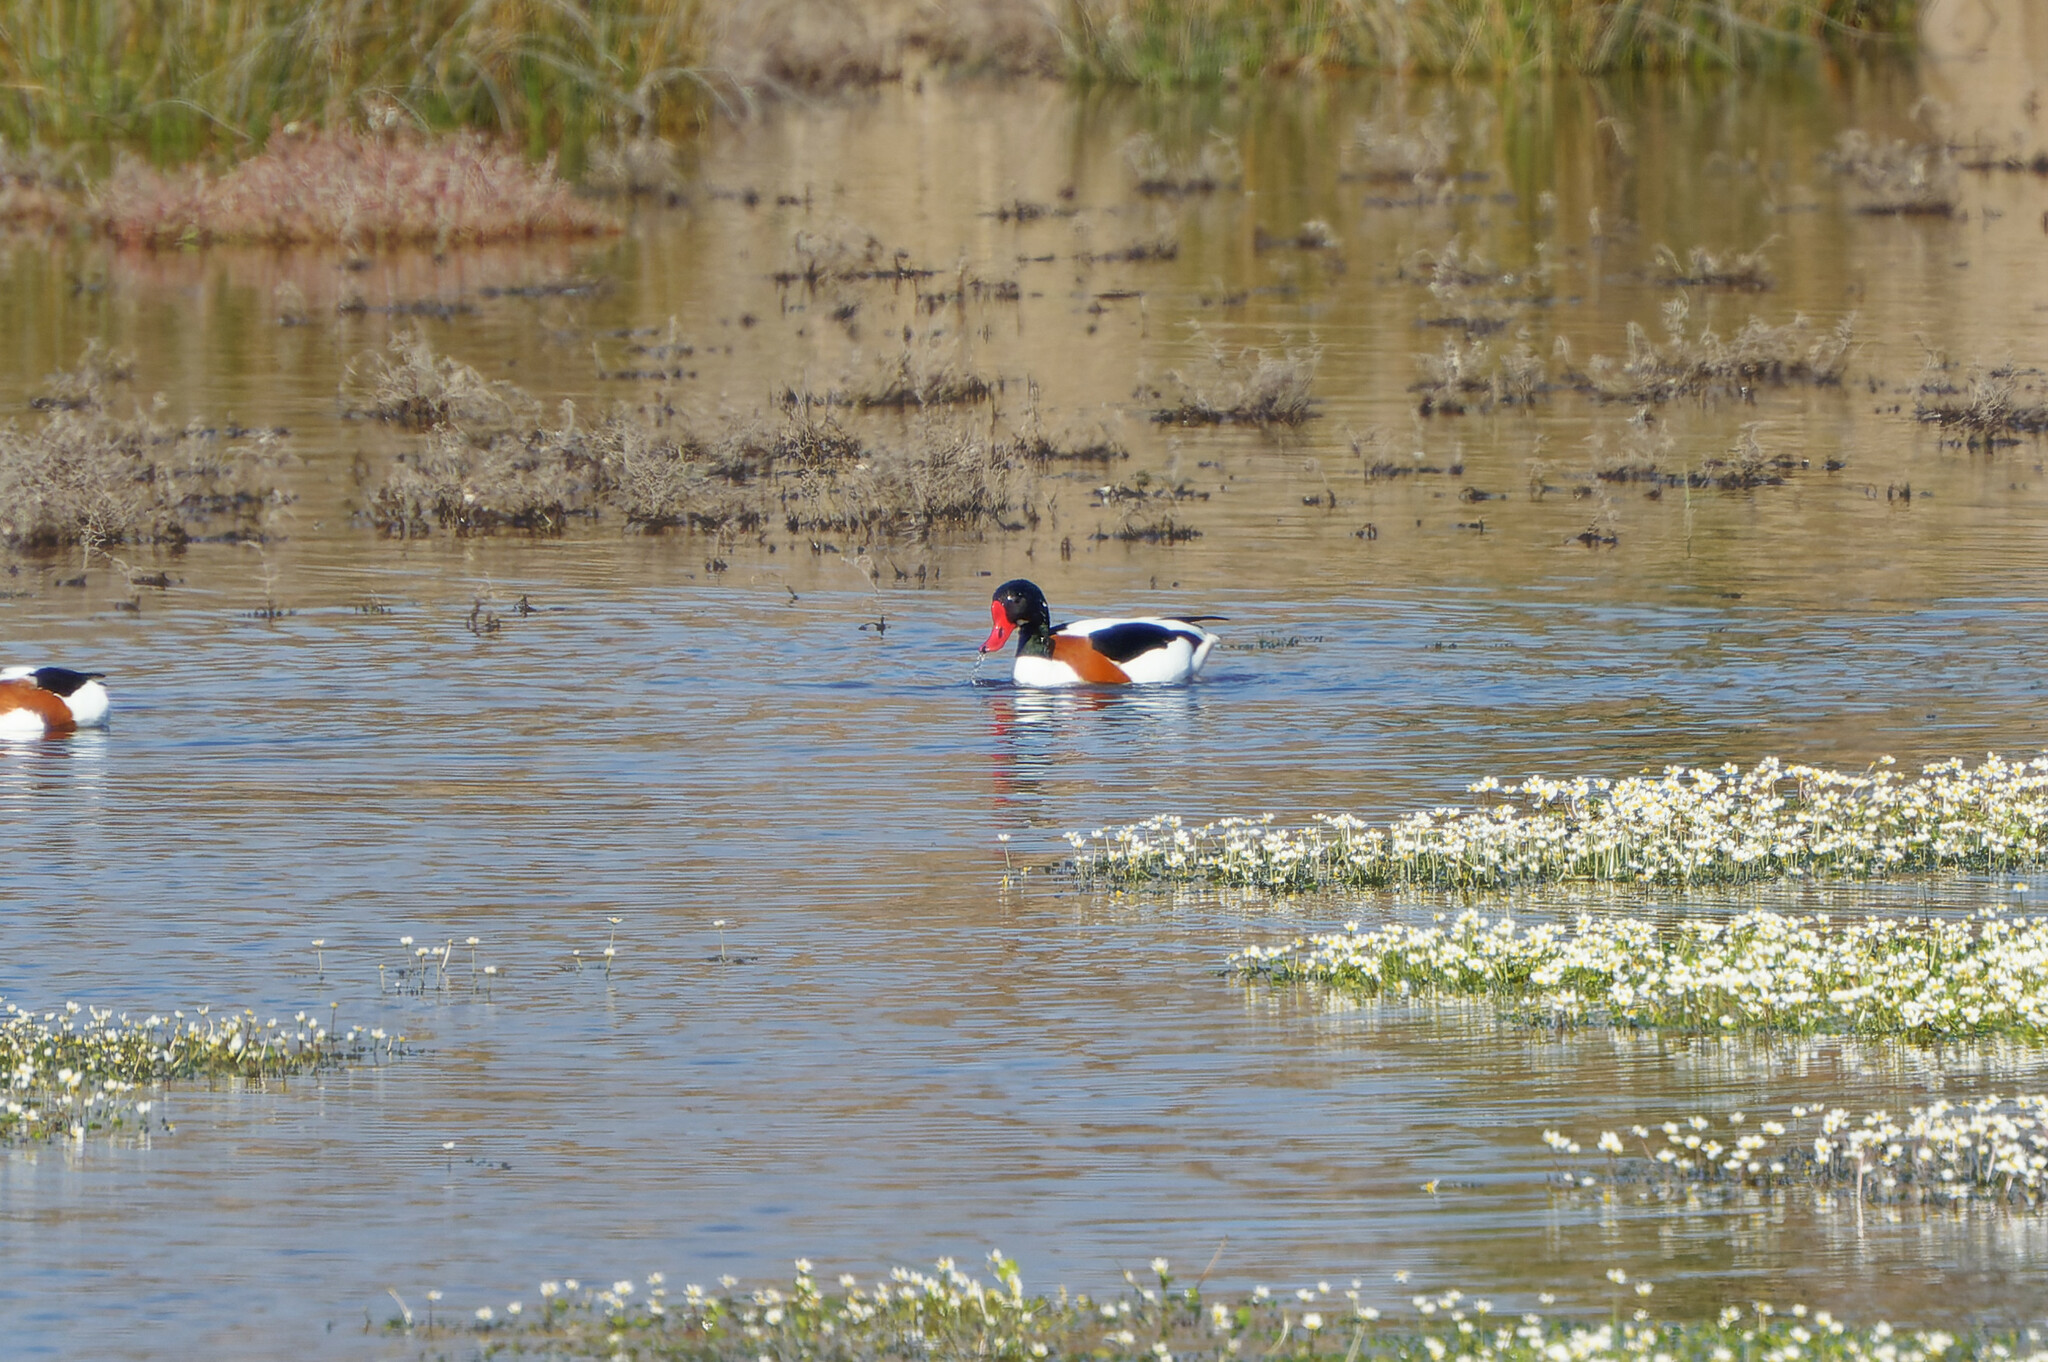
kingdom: Animalia
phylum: Chordata
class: Aves
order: Anseriformes
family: Anatidae
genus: Tadorna
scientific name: Tadorna tadorna
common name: Common shelduck
